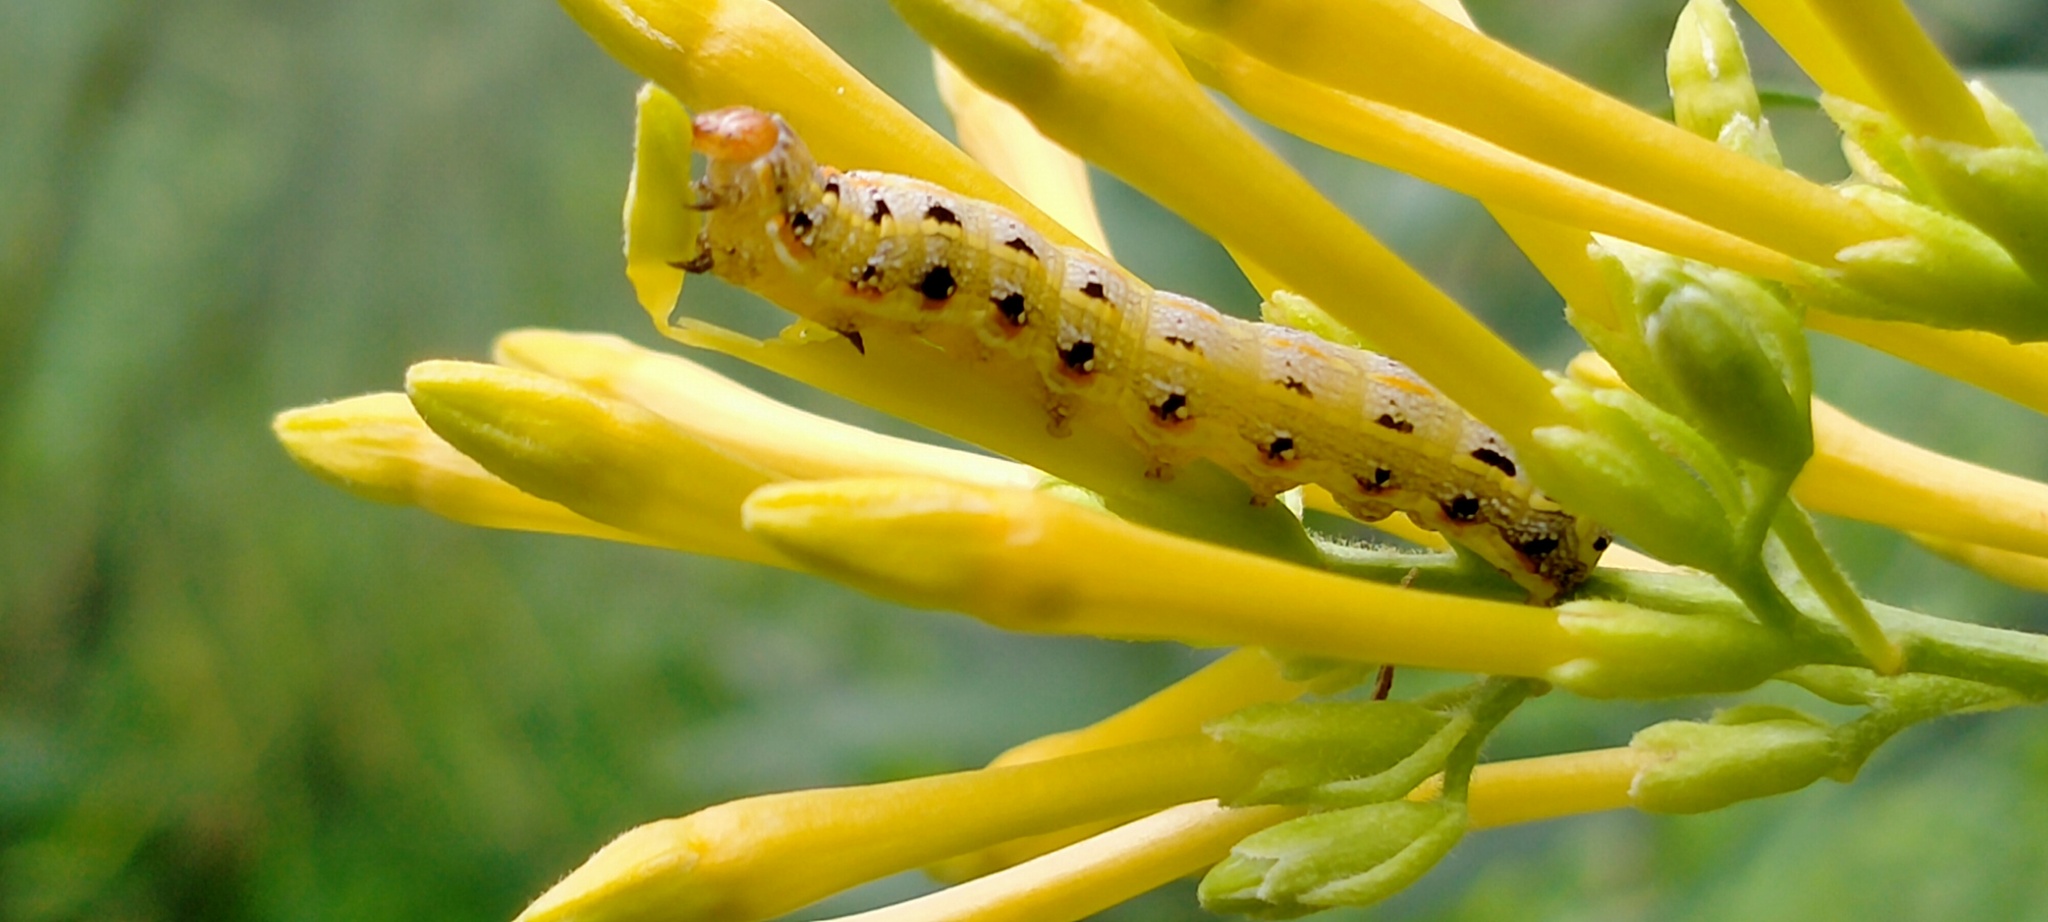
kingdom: Plantae
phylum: Tracheophyta
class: Magnoliopsida
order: Solanales
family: Solanaceae
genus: Cestrum
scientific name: Cestrum parqui
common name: Chilean cestrum
